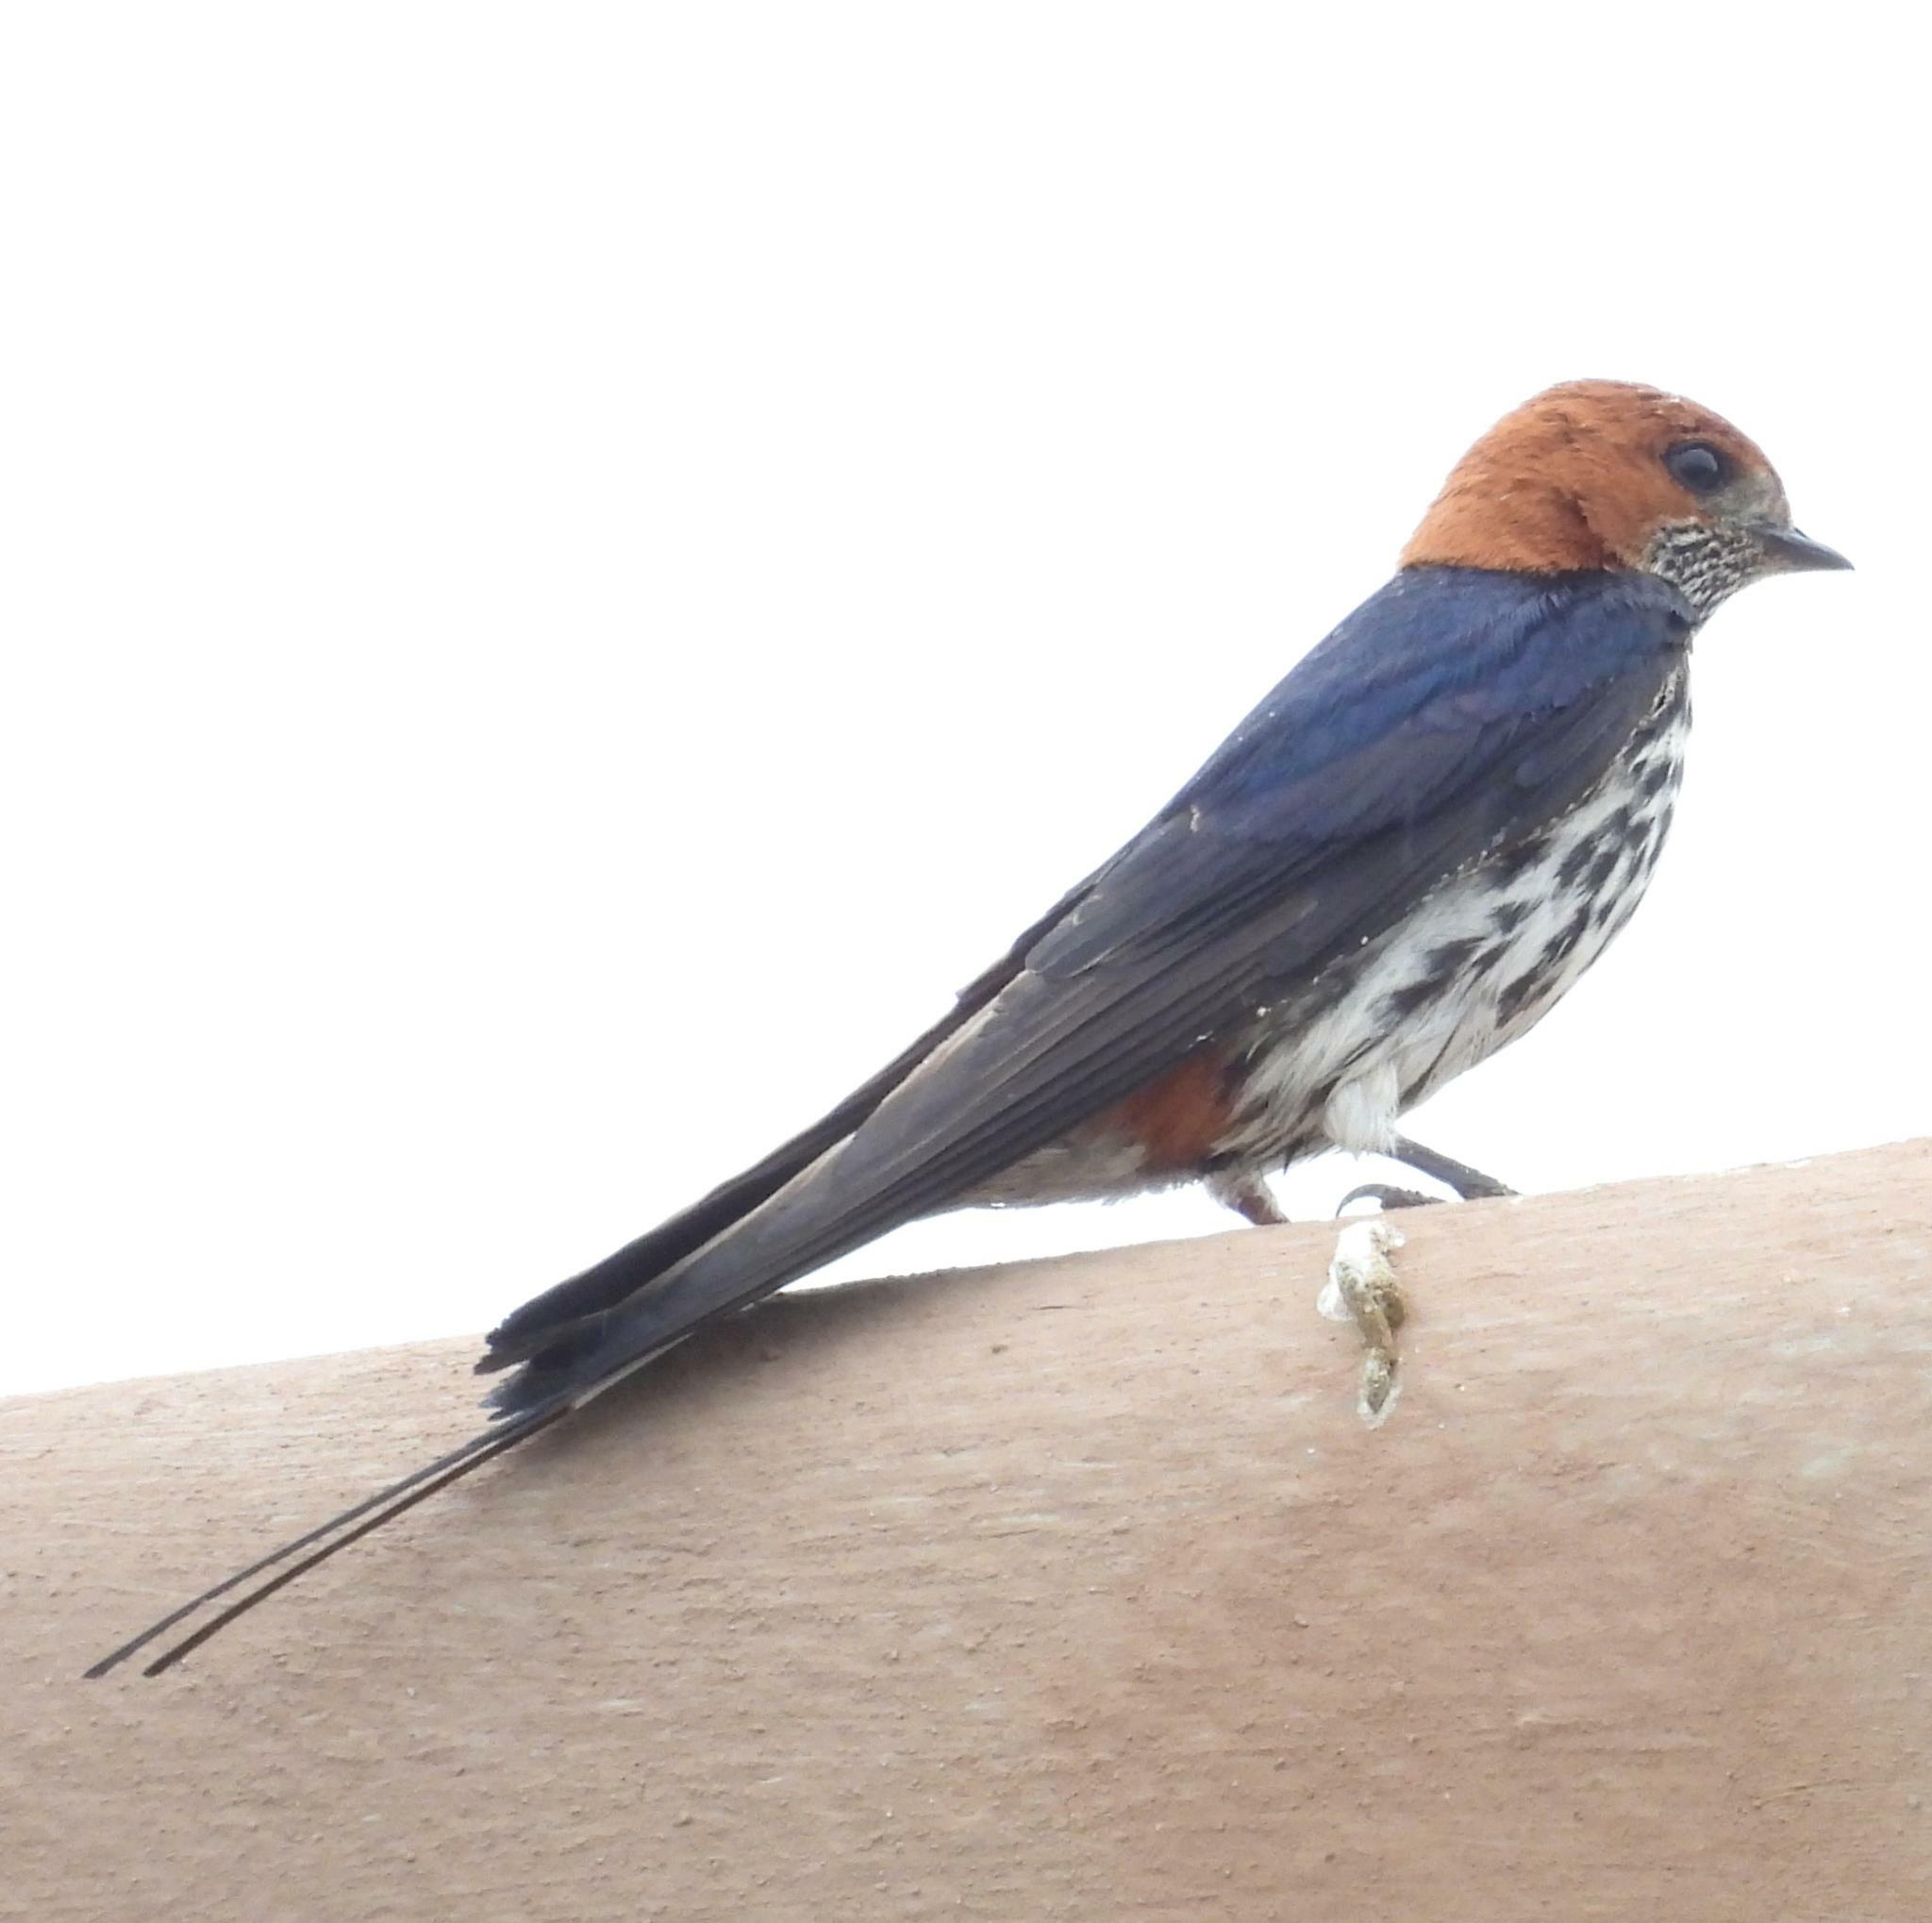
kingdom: Animalia
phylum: Chordata
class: Aves
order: Passeriformes
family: Hirundinidae
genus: Cecropis
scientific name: Cecropis abyssinica
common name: Lesser striped-swallow
